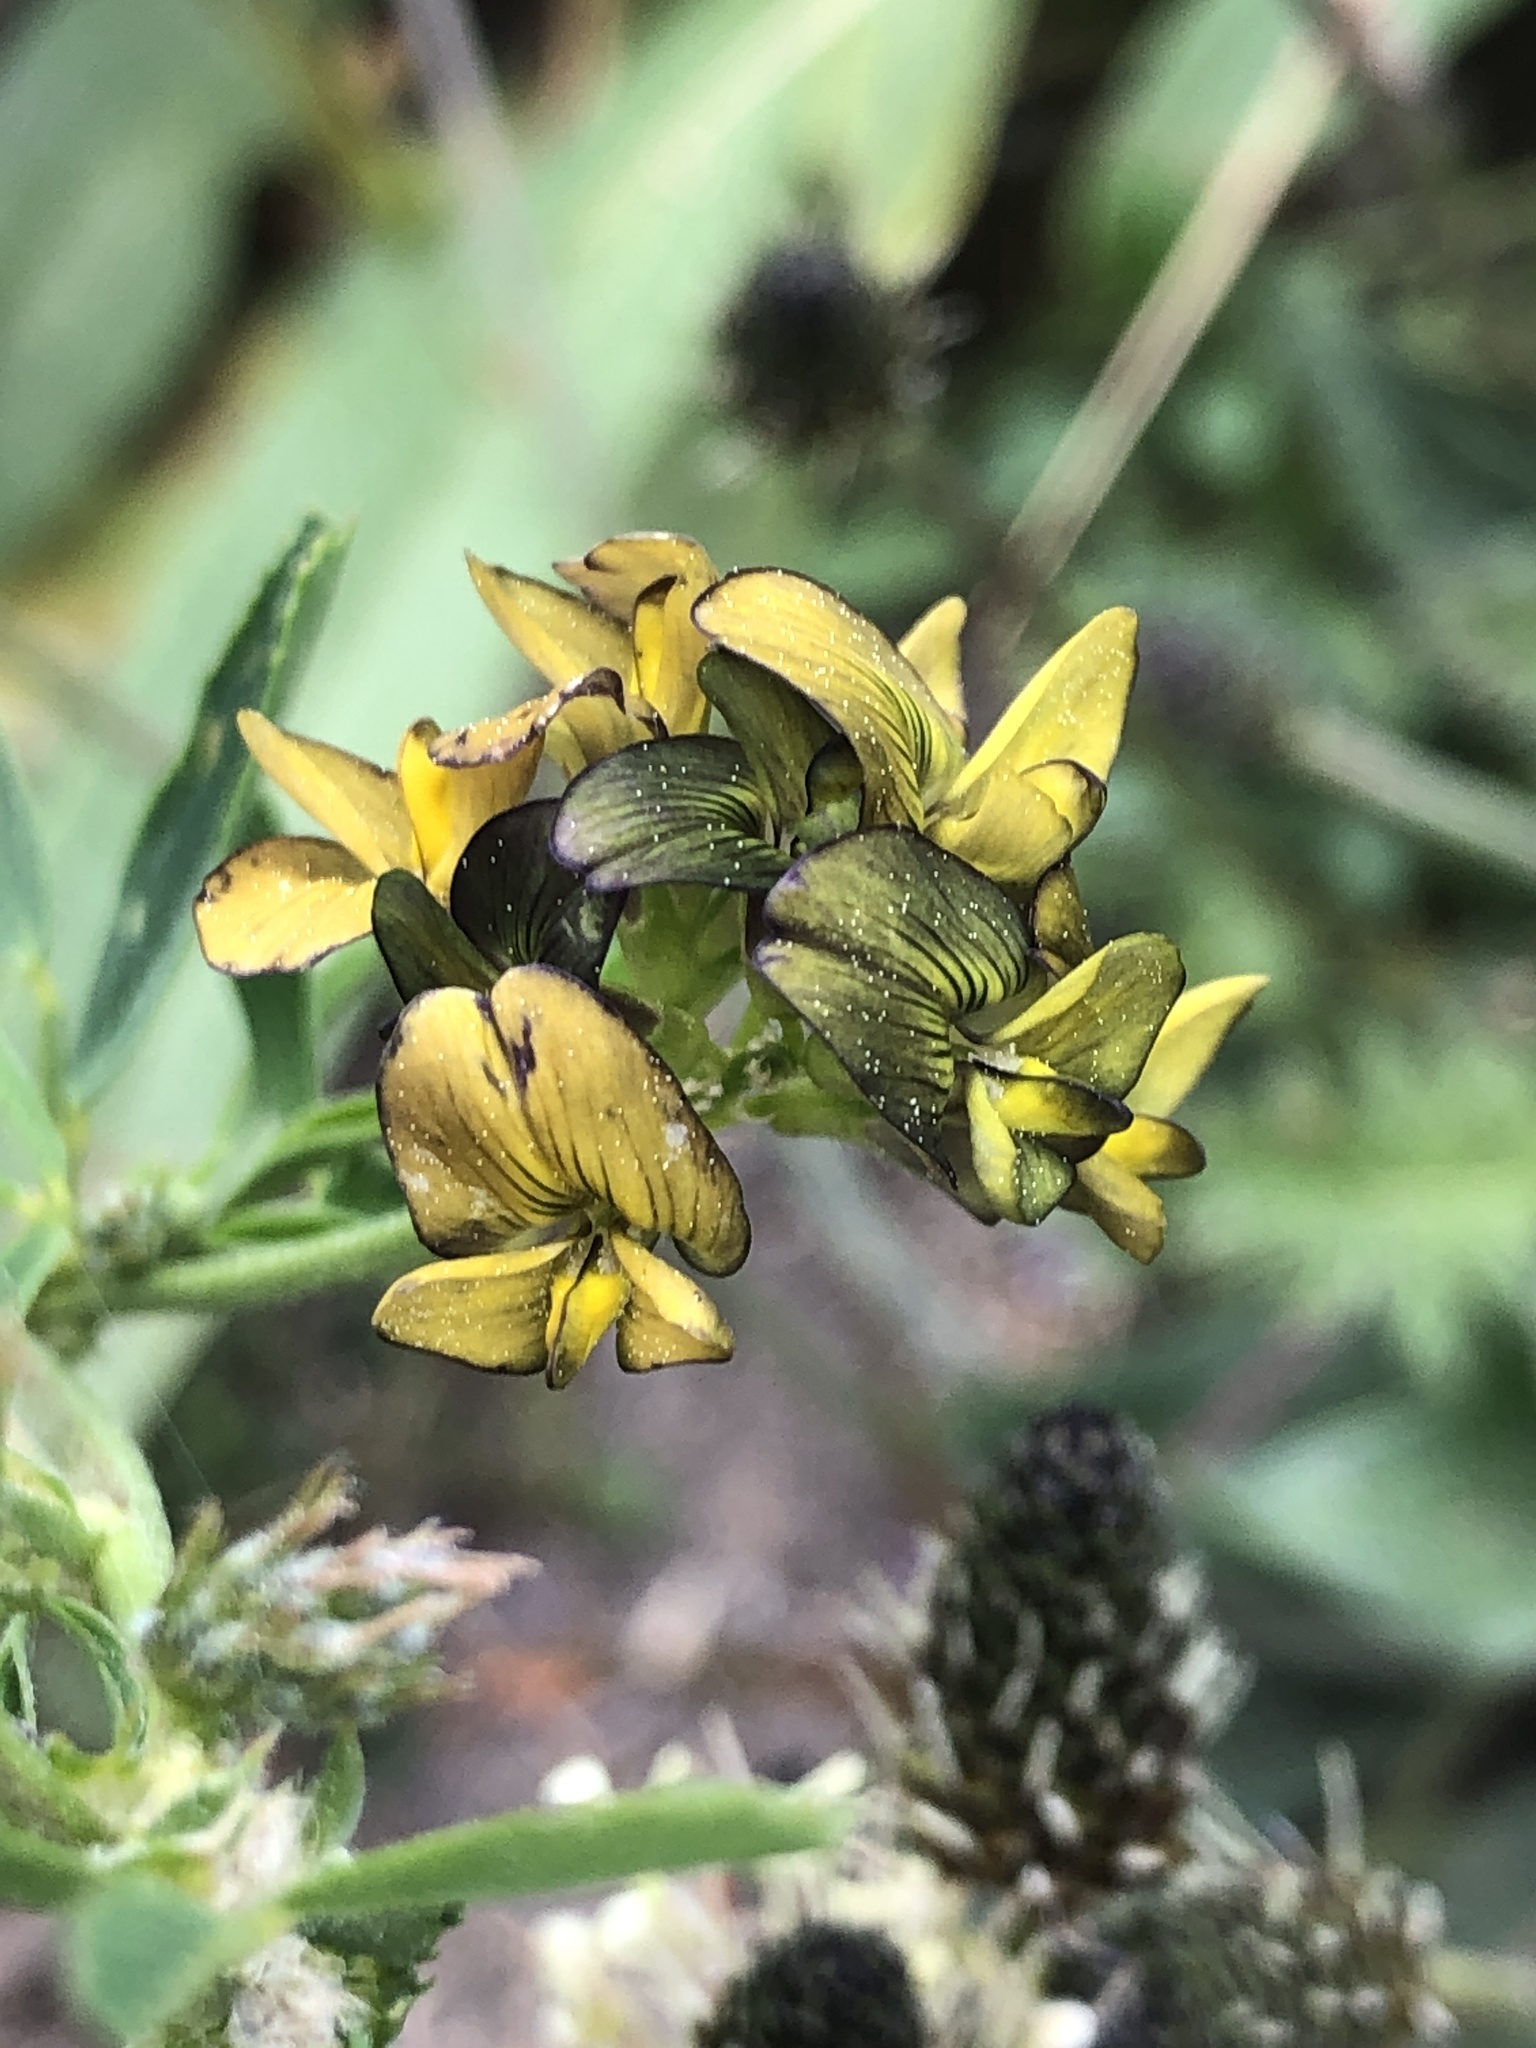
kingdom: Plantae
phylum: Tracheophyta
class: Magnoliopsida
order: Fabales
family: Fabaceae
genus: Medicago
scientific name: Medicago varia
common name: Sand lucerne
